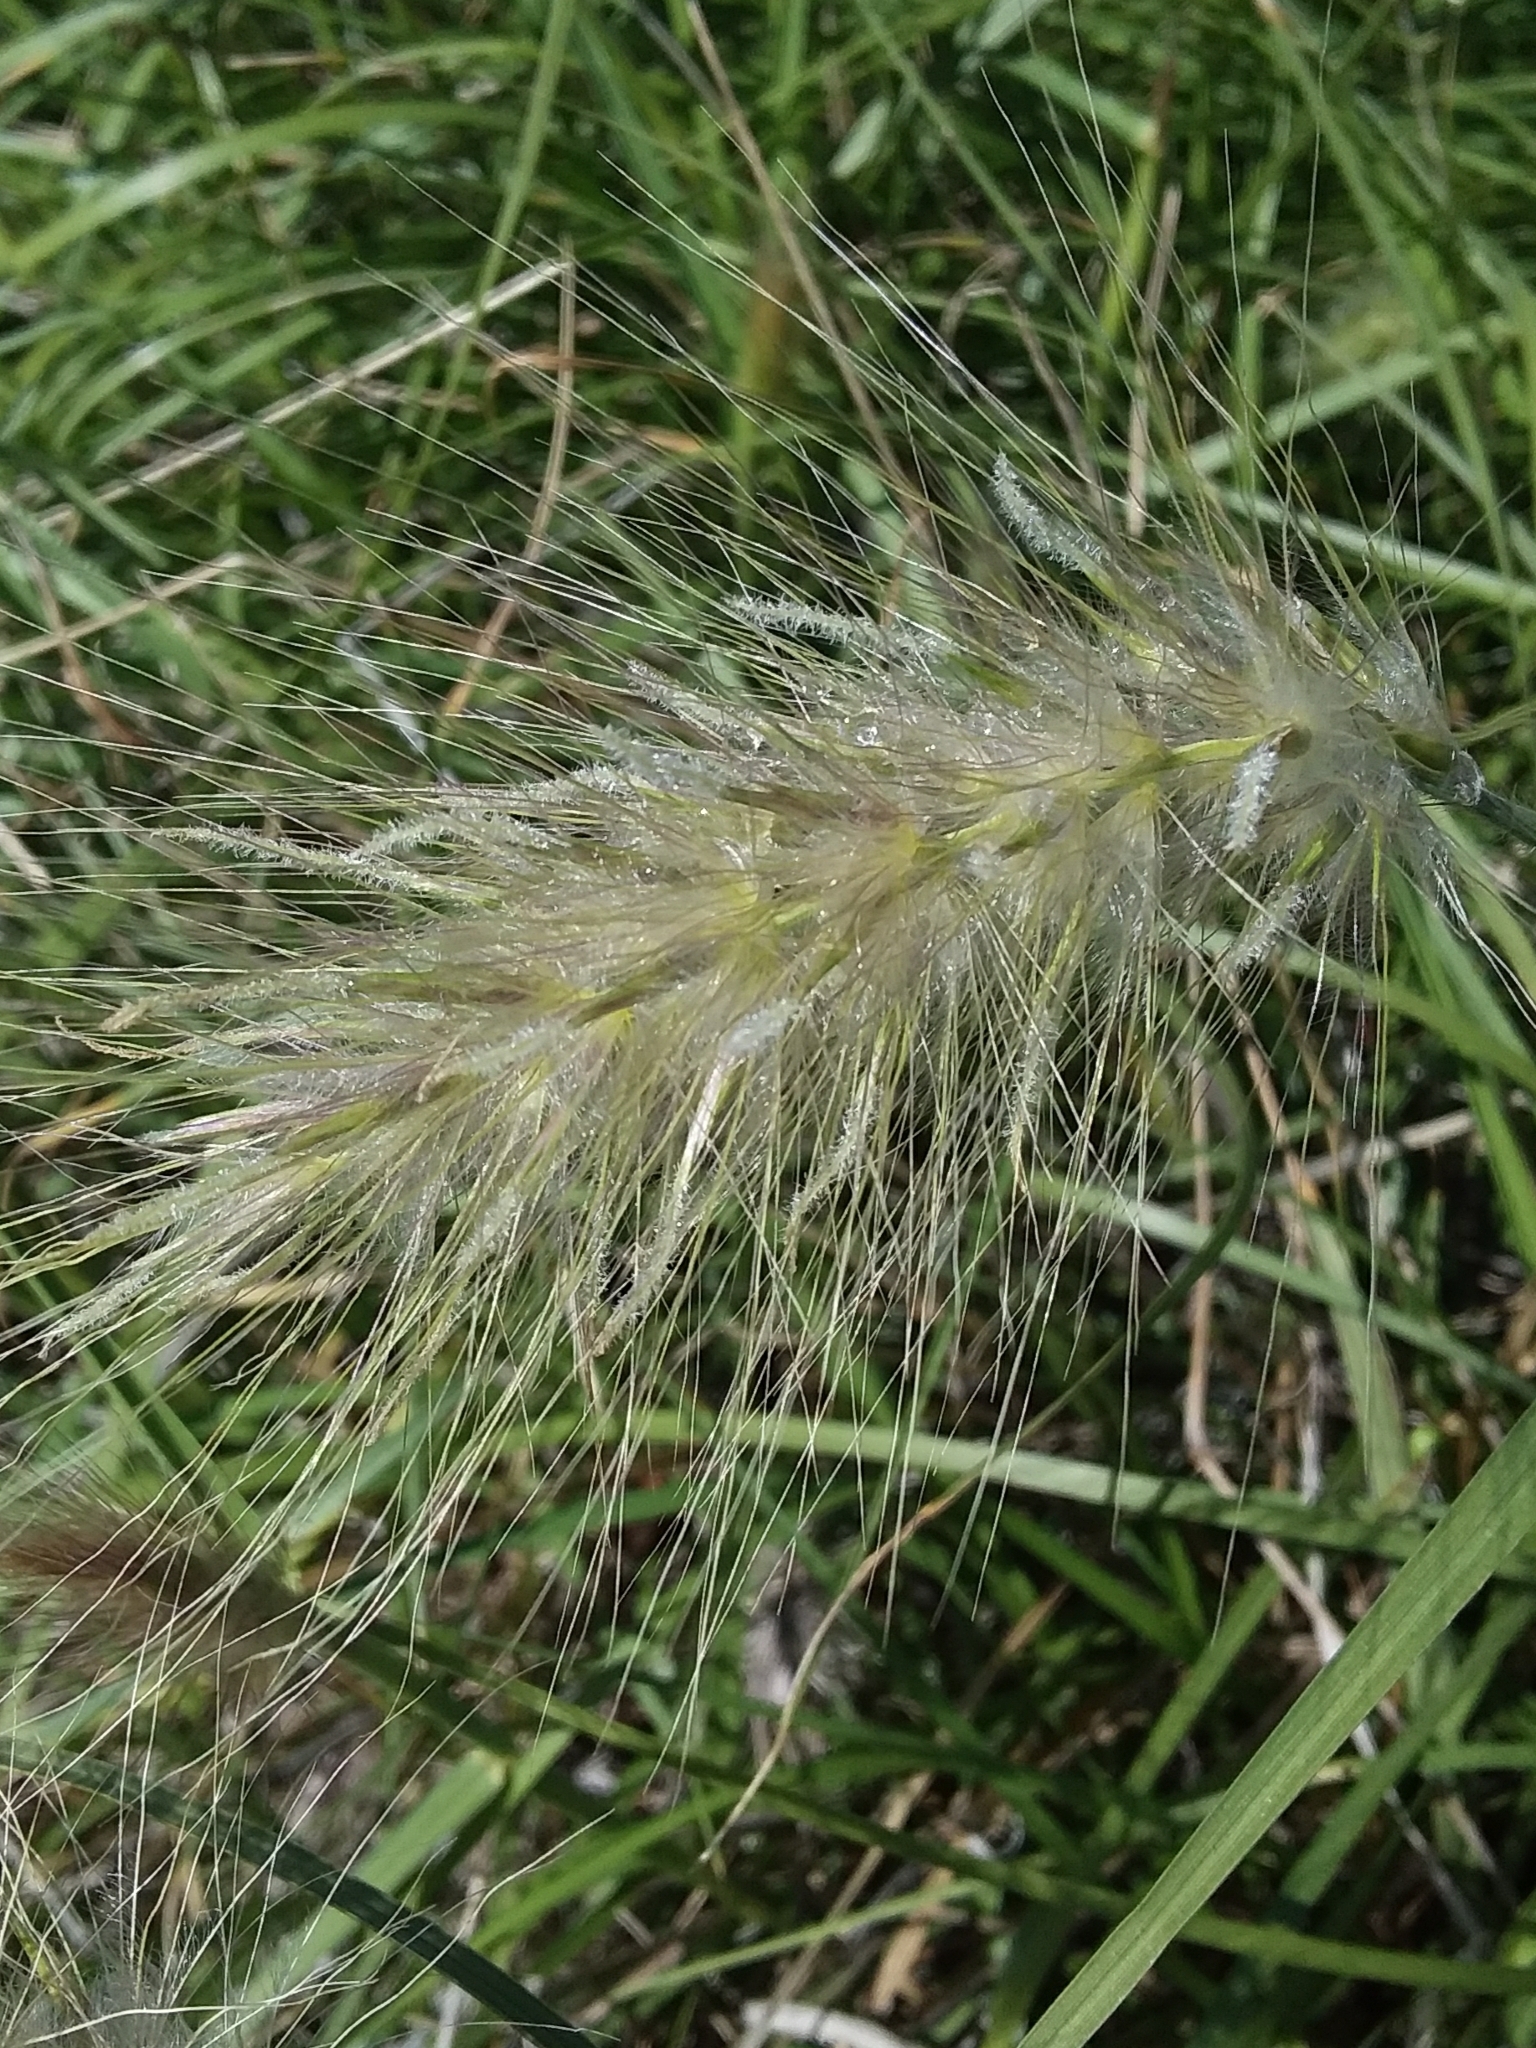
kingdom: Plantae
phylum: Tracheophyta
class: Liliopsida
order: Poales
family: Poaceae
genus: Cenchrus
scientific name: Cenchrus longisetus
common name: Feathertop
